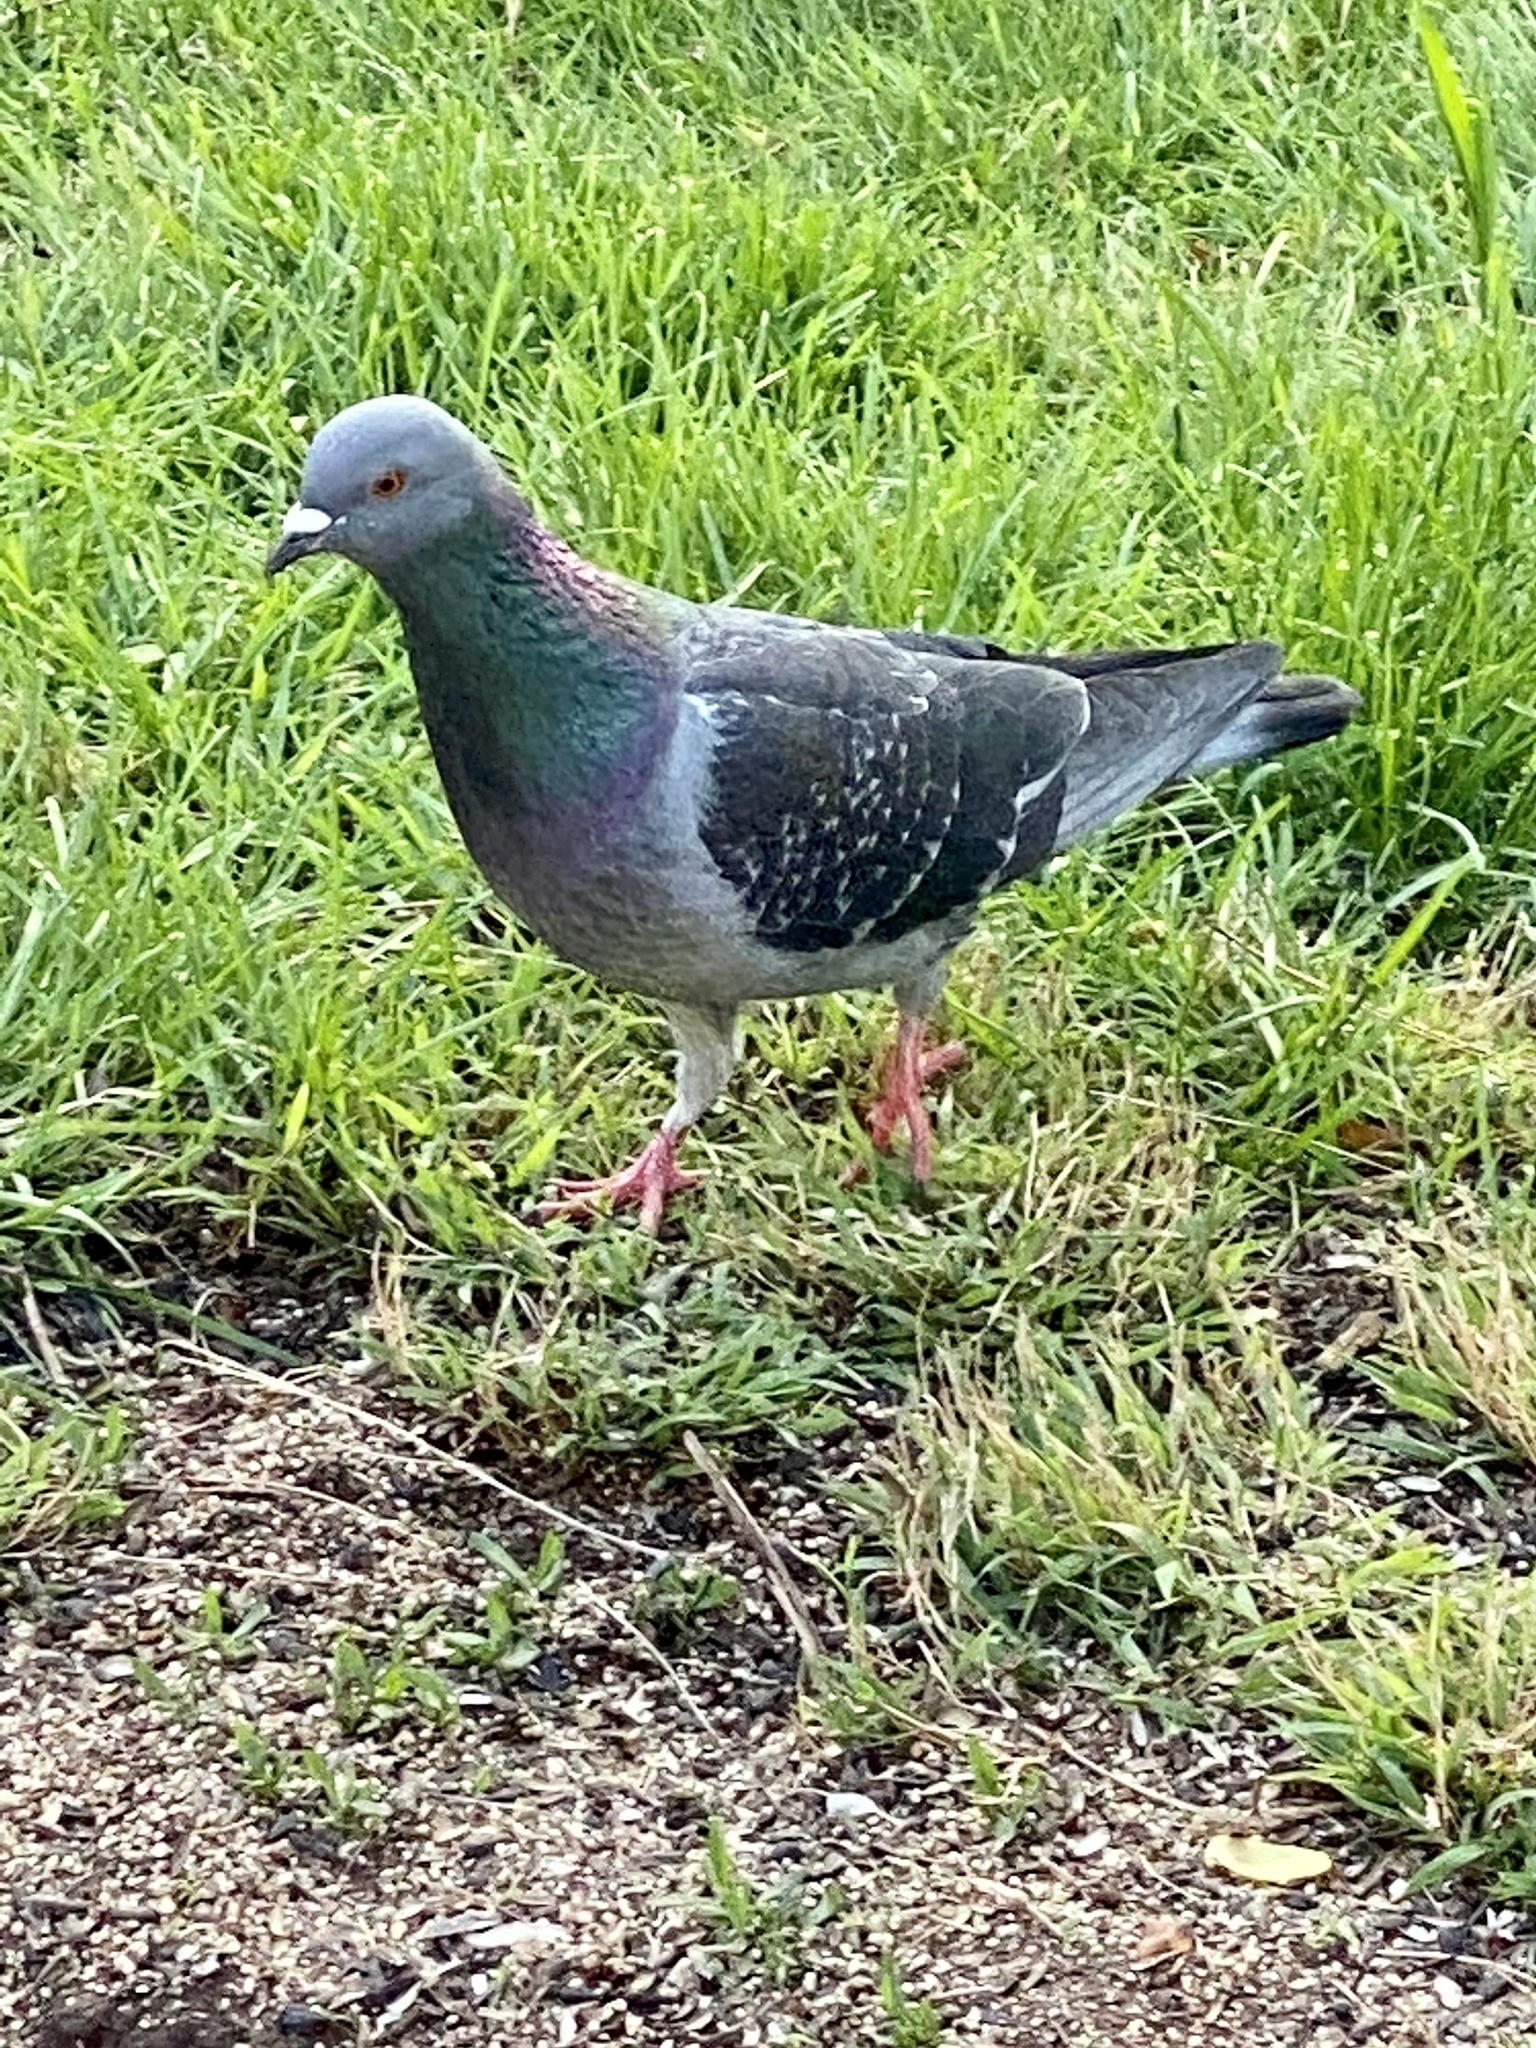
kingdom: Animalia
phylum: Chordata
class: Aves
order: Columbiformes
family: Columbidae
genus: Columba
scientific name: Columba livia
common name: Rock pigeon
